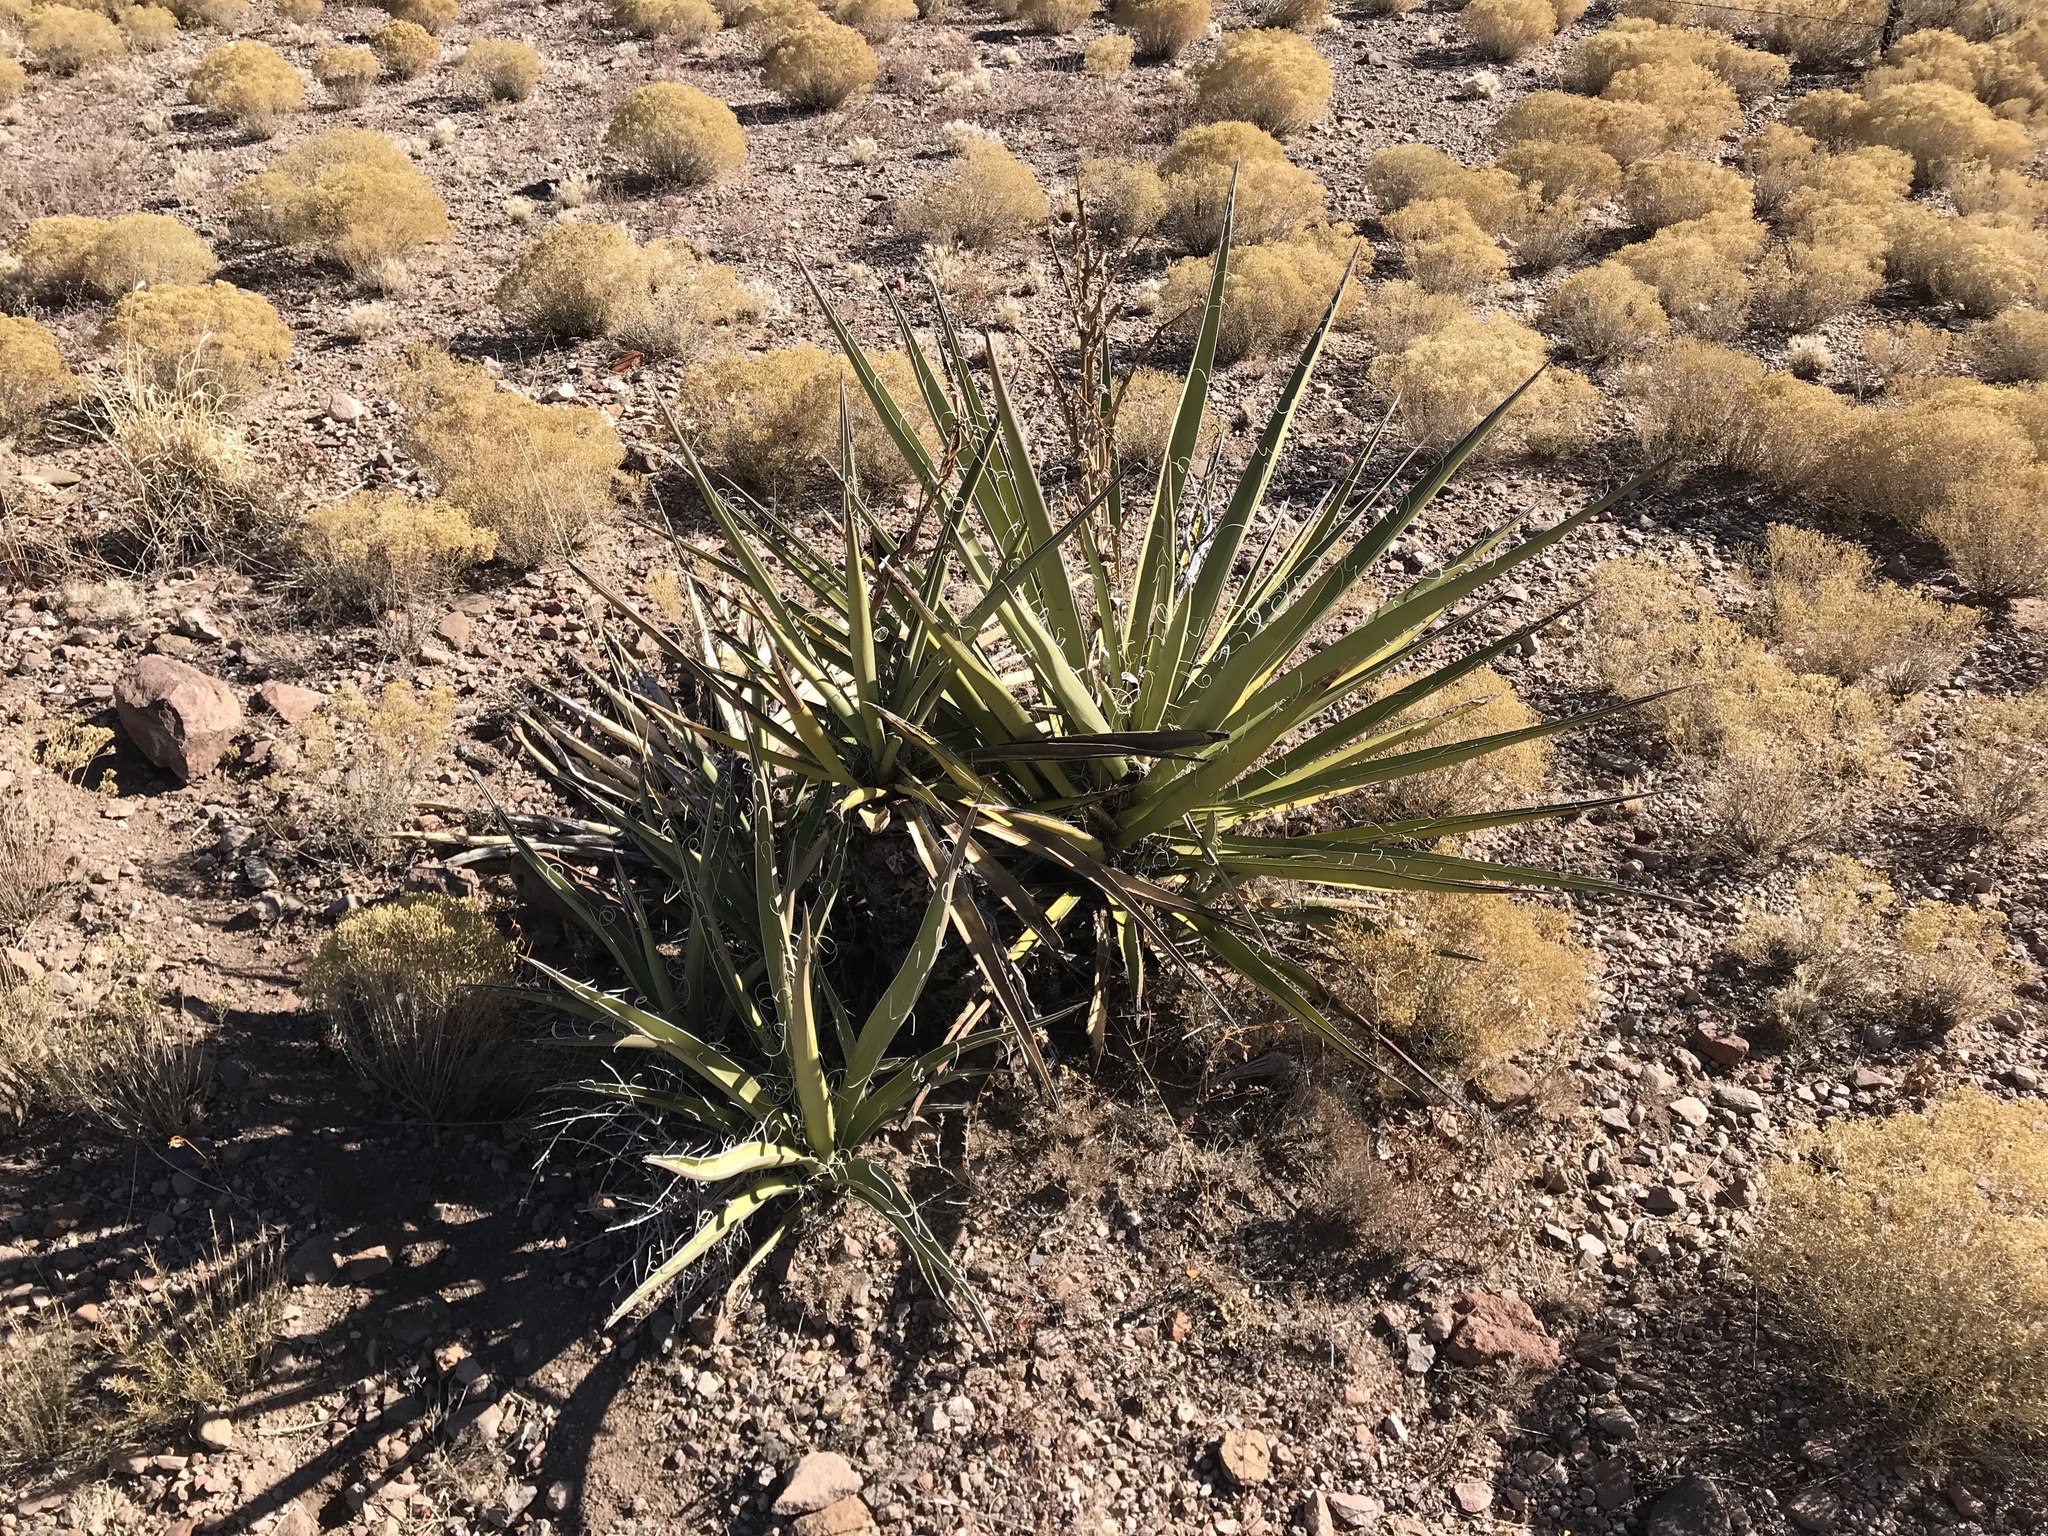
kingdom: Plantae
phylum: Tracheophyta
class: Liliopsida
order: Asparagales
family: Asparagaceae
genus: Yucca
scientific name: Yucca baccata
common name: Banana yucca
